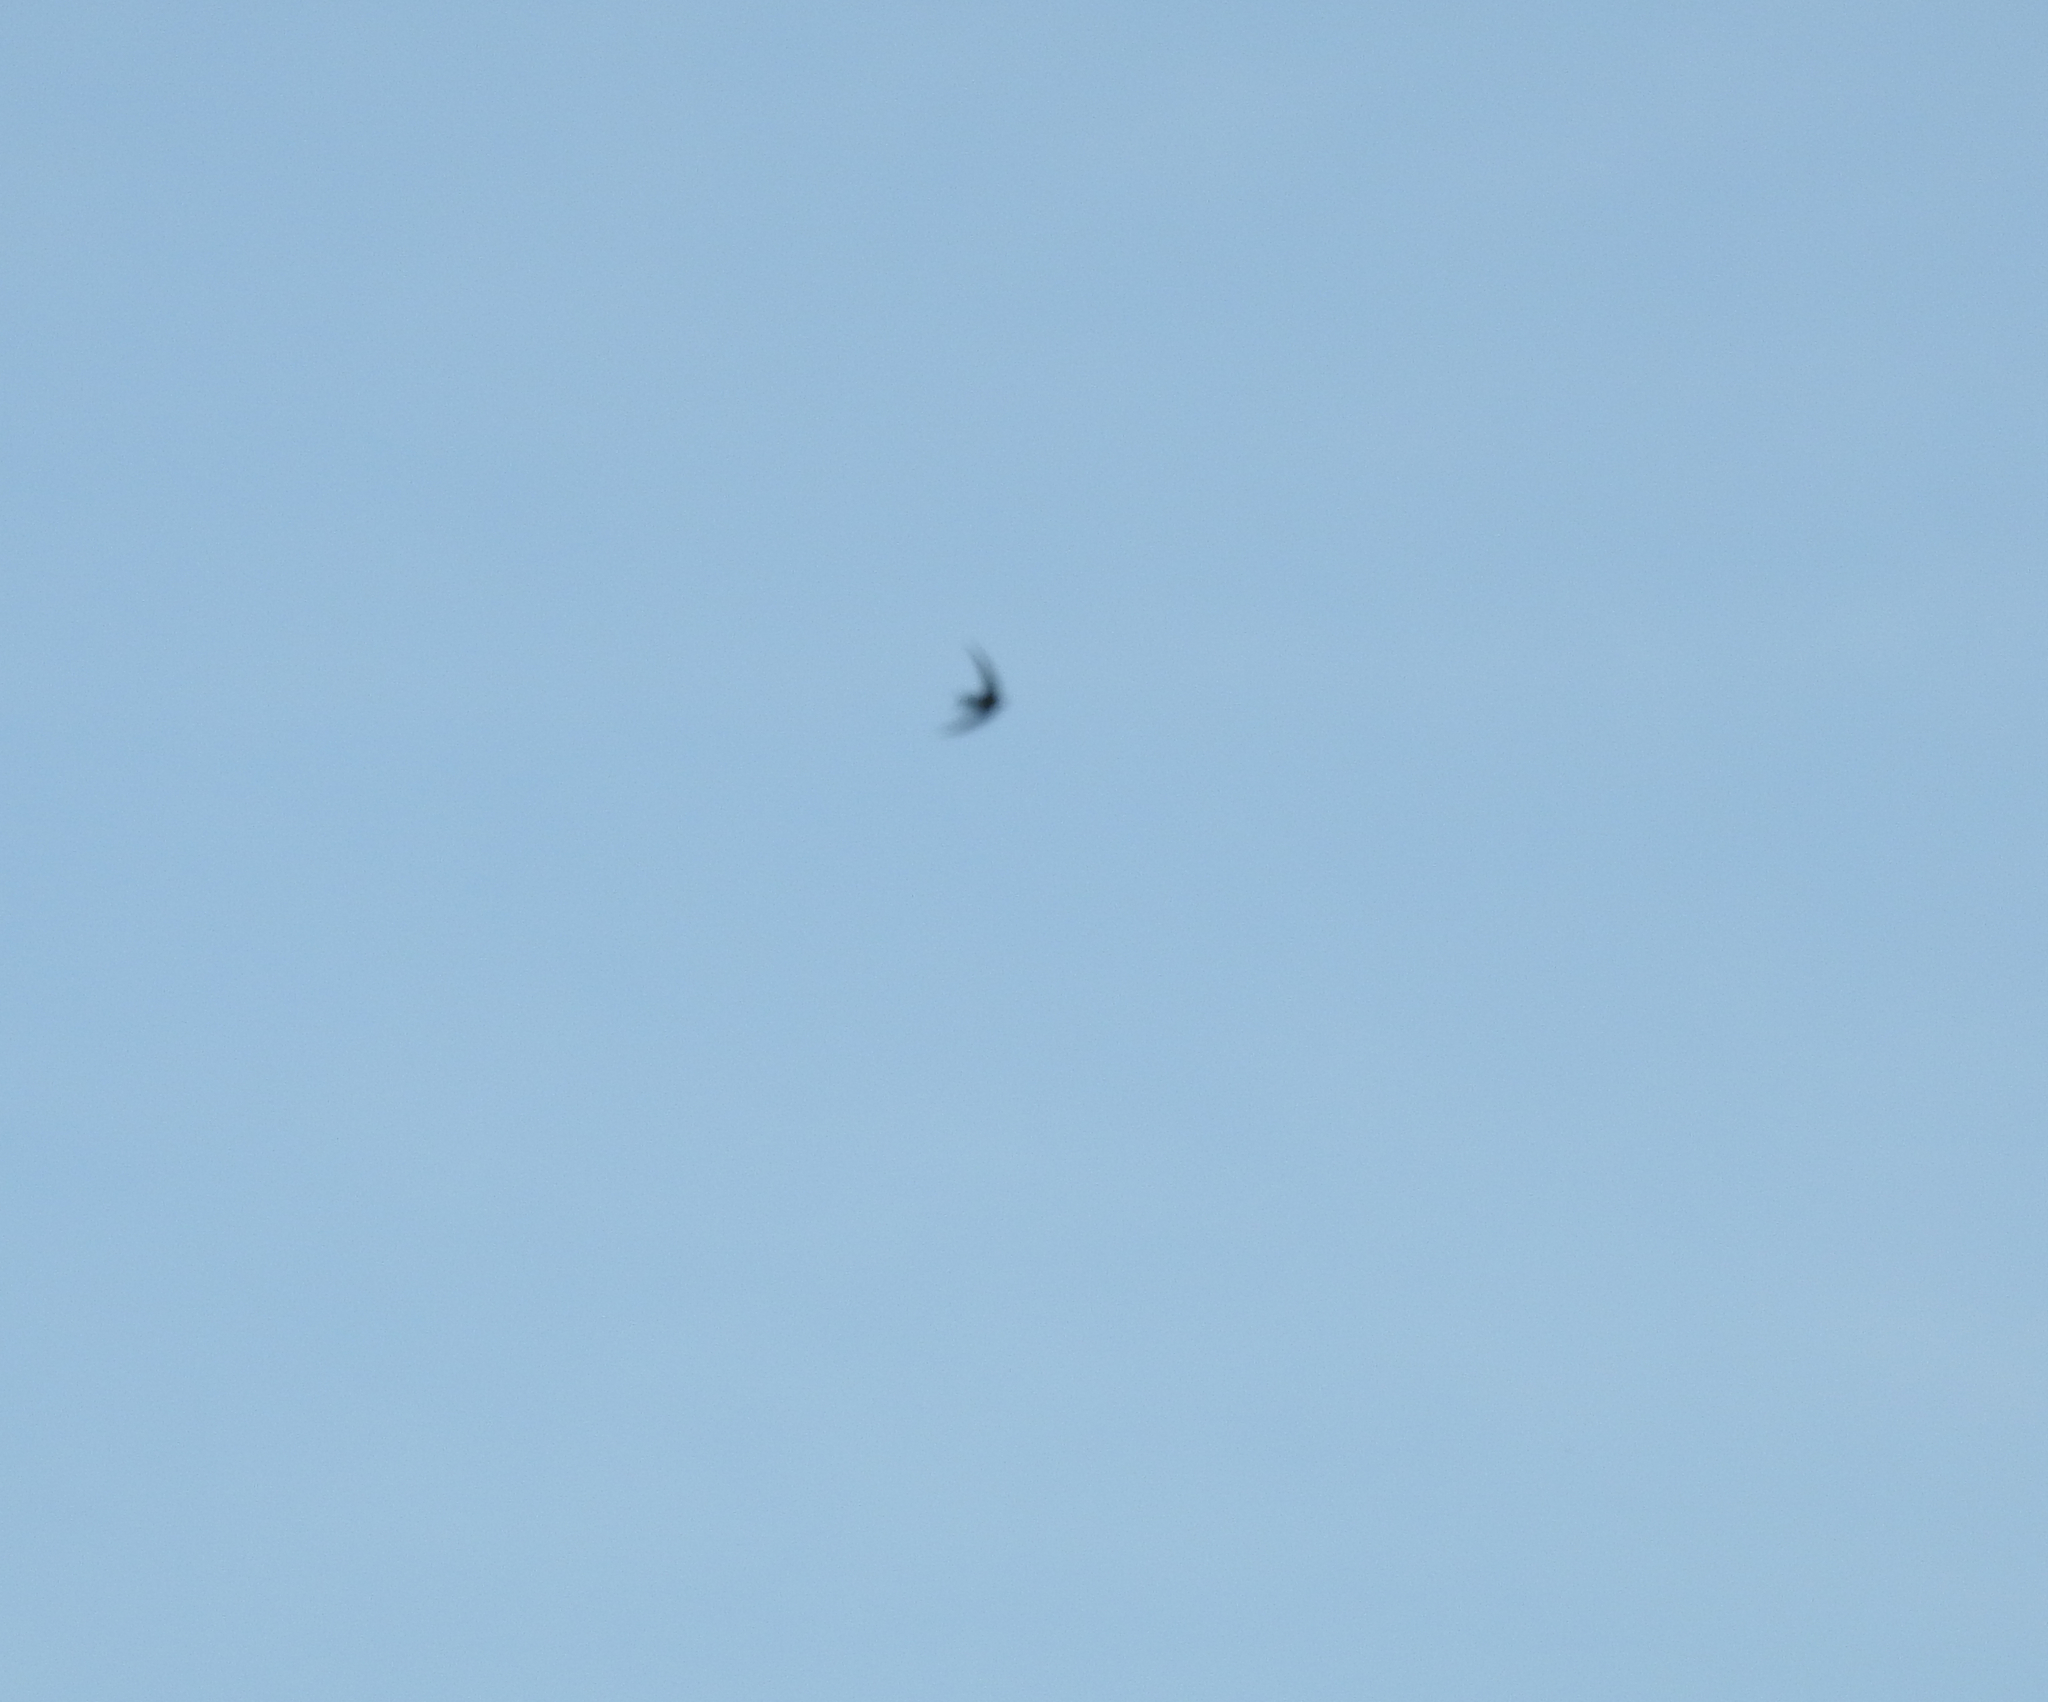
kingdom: Animalia
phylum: Chordata
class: Aves
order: Apodiformes
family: Apodidae
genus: Apus
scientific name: Apus apus
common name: Common swift
